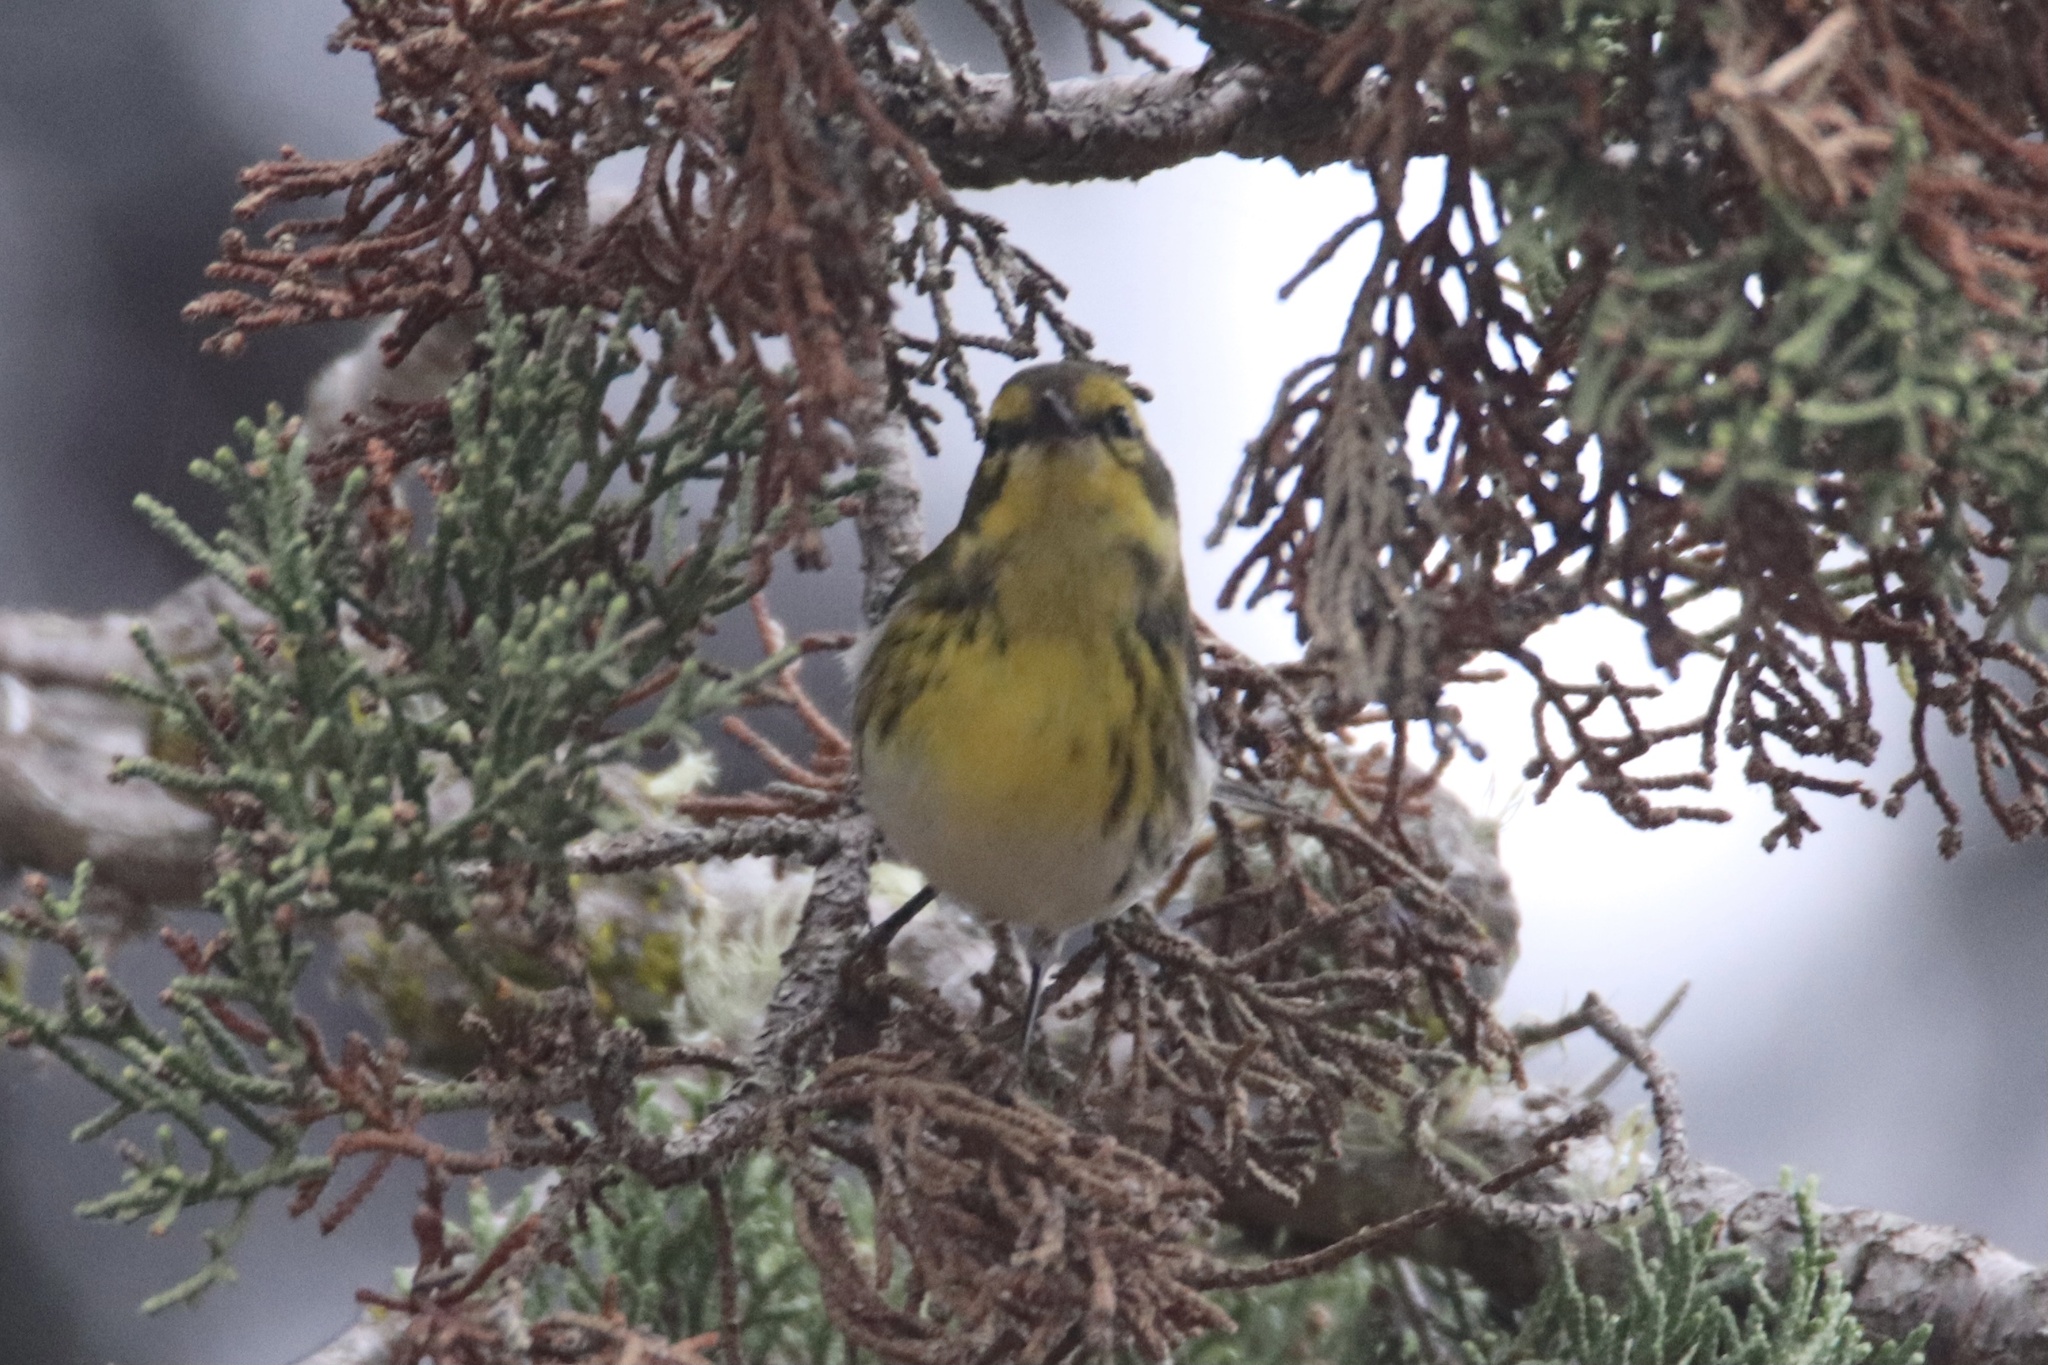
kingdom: Animalia
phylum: Chordata
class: Aves
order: Passeriformes
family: Parulidae
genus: Setophaga
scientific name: Setophaga townsendi
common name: Townsend's warbler
